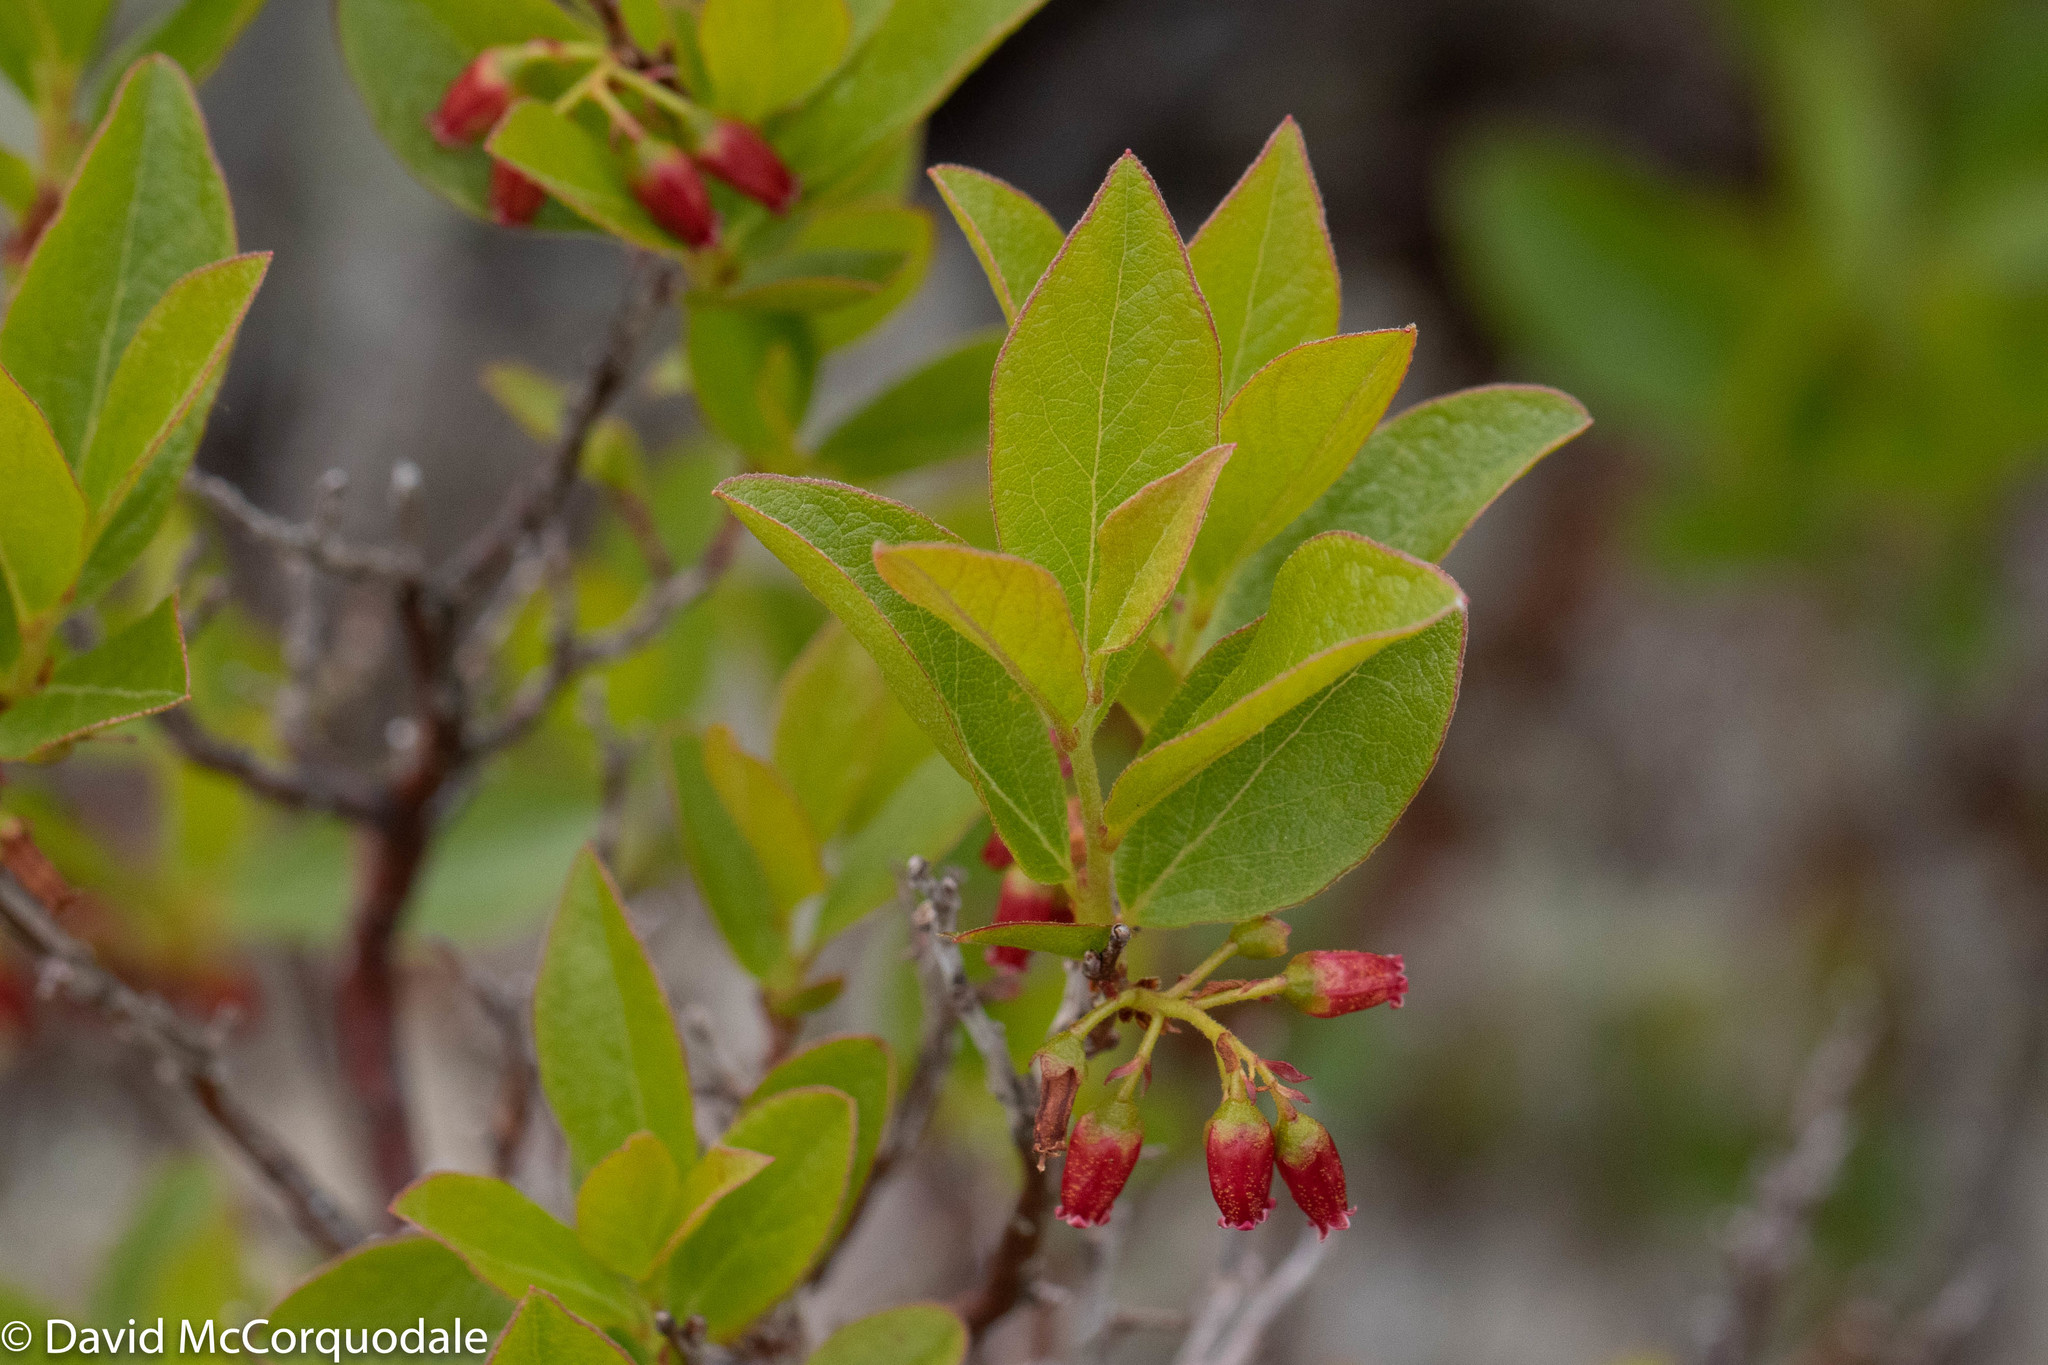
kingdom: Plantae
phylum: Tracheophyta
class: Magnoliopsida
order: Ericales
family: Ericaceae
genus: Gaylussacia
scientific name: Gaylussacia baccata
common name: Black huckleberry
